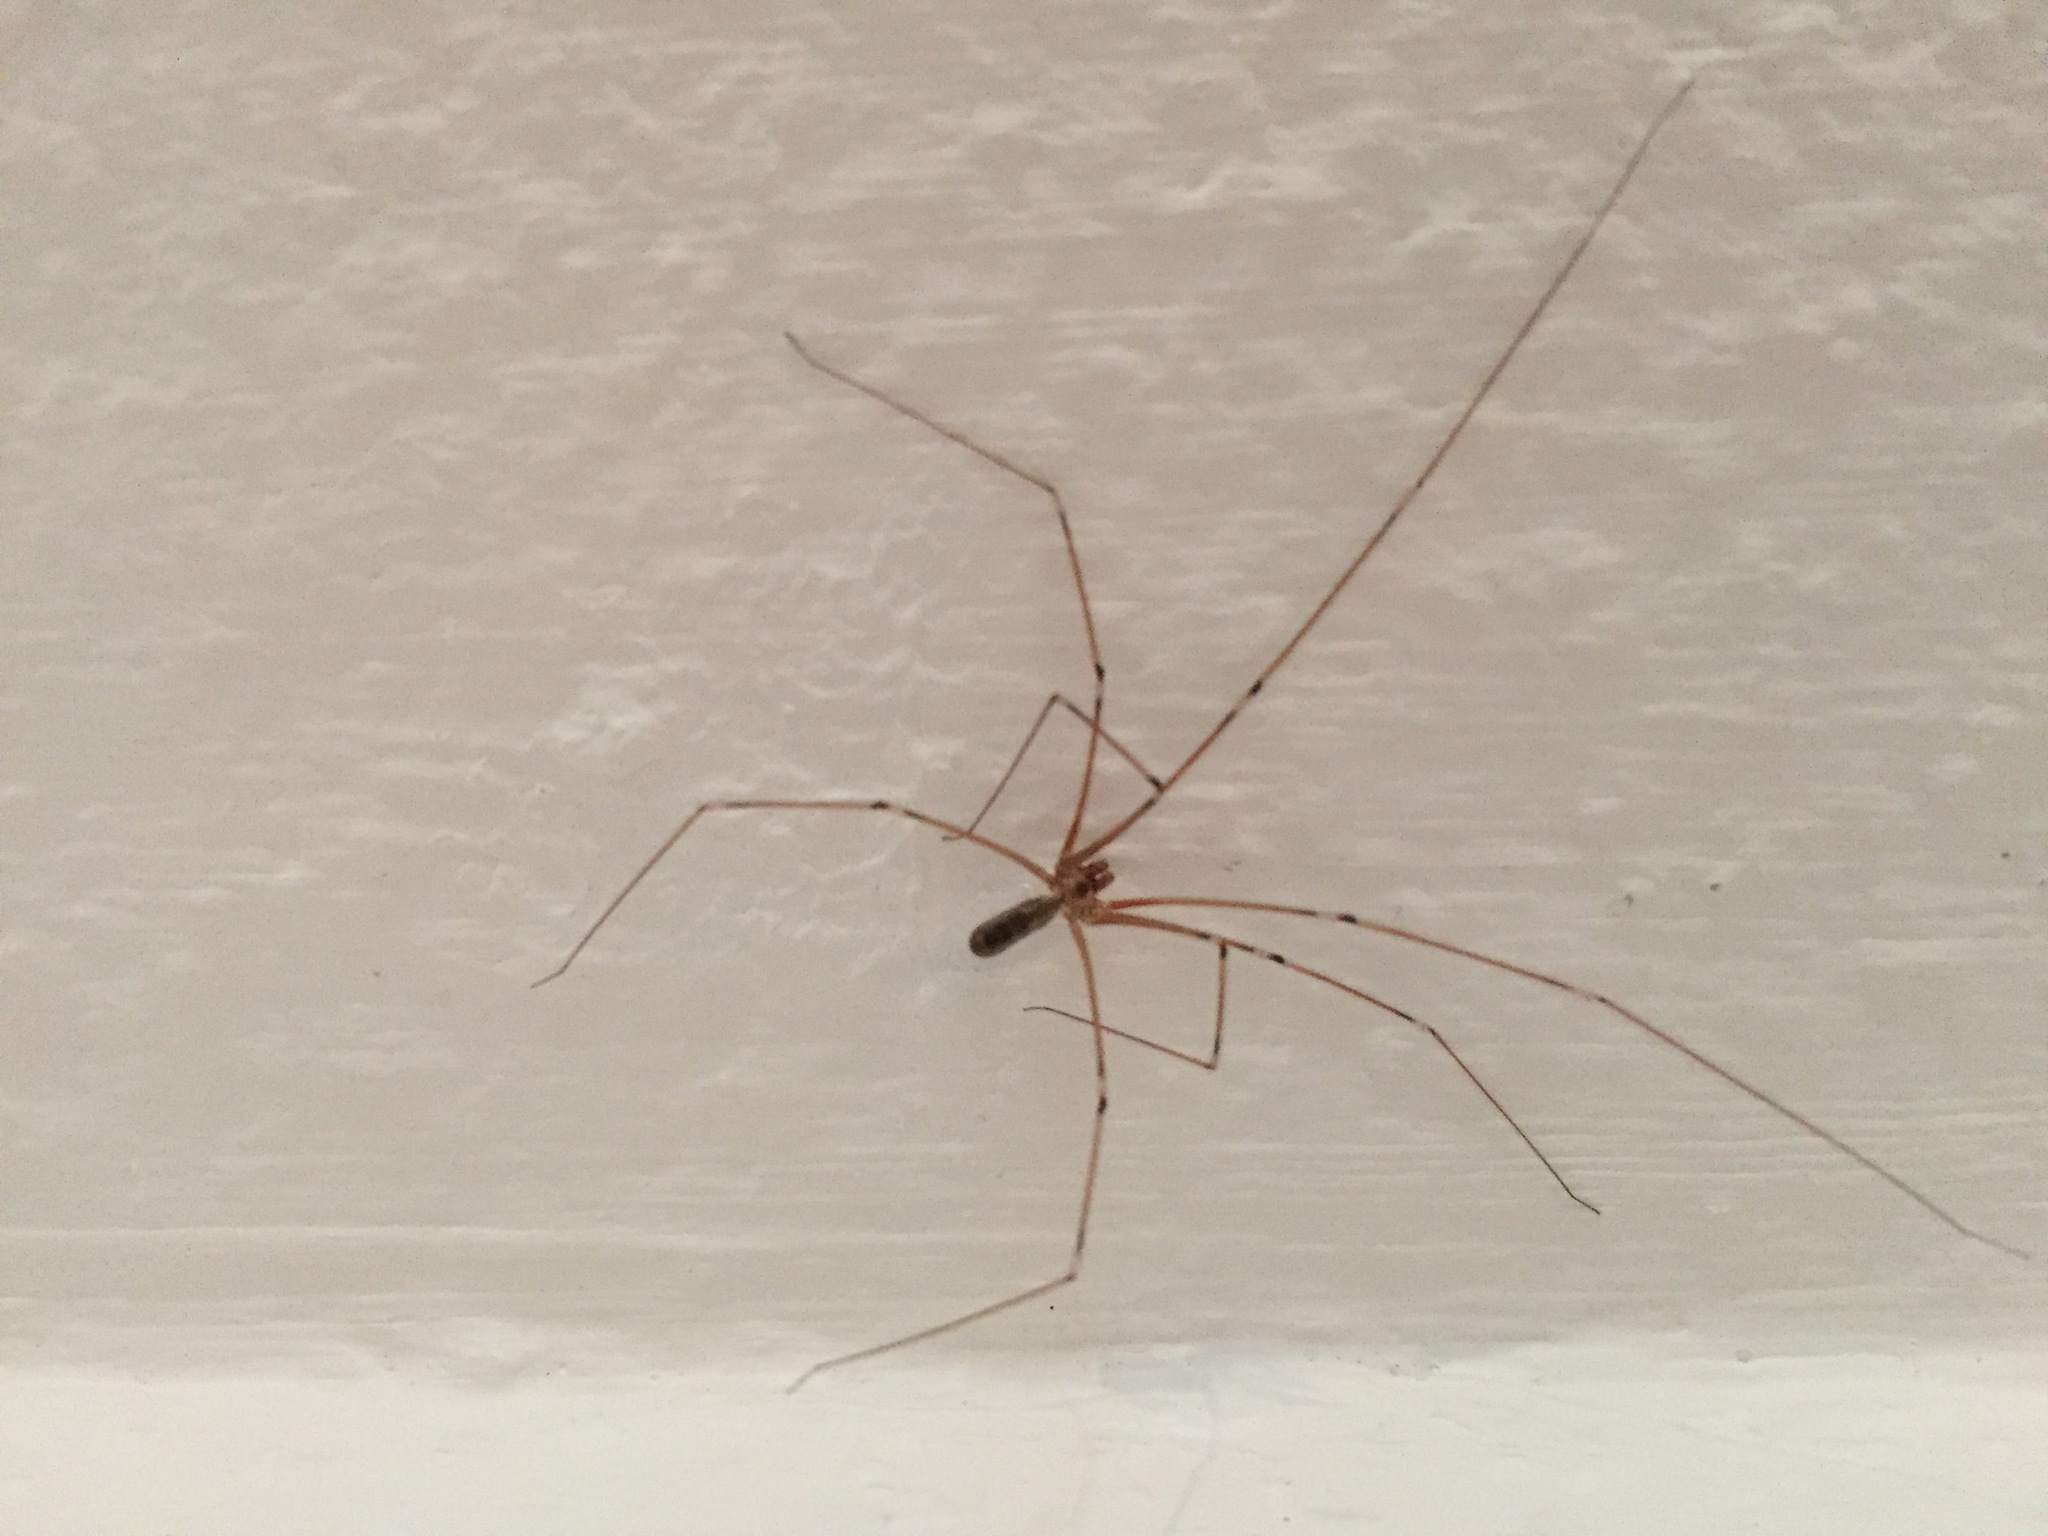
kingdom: Animalia
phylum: Arthropoda
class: Arachnida
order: Araneae
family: Pholcidae
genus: Pholcus
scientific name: Pholcus phalangioides
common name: Longbodied cellar spider
